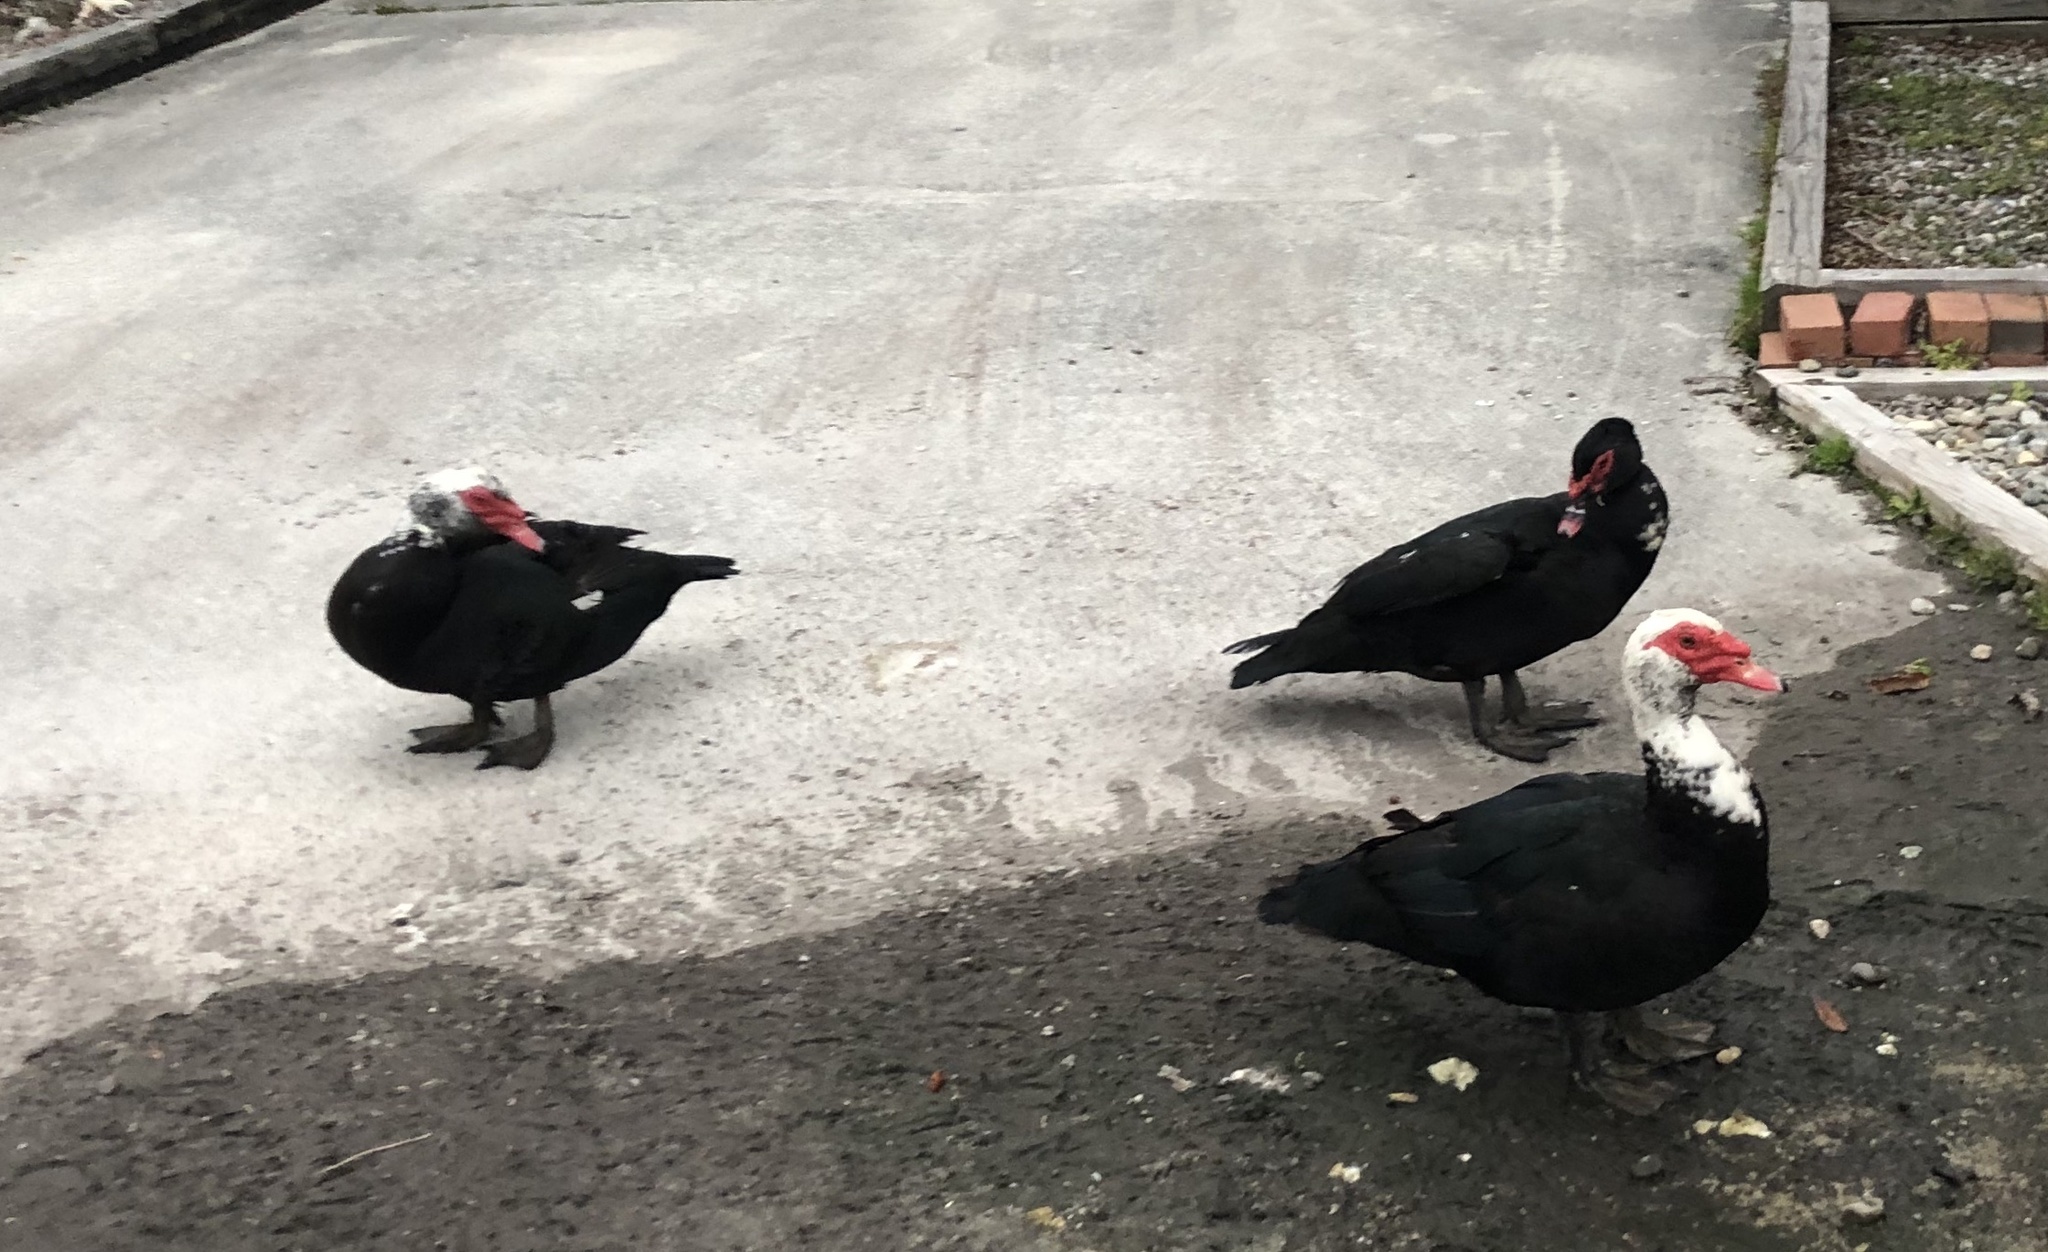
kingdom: Animalia
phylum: Chordata
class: Aves
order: Anseriformes
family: Anatidae
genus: Cairina
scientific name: Cairina moschata
